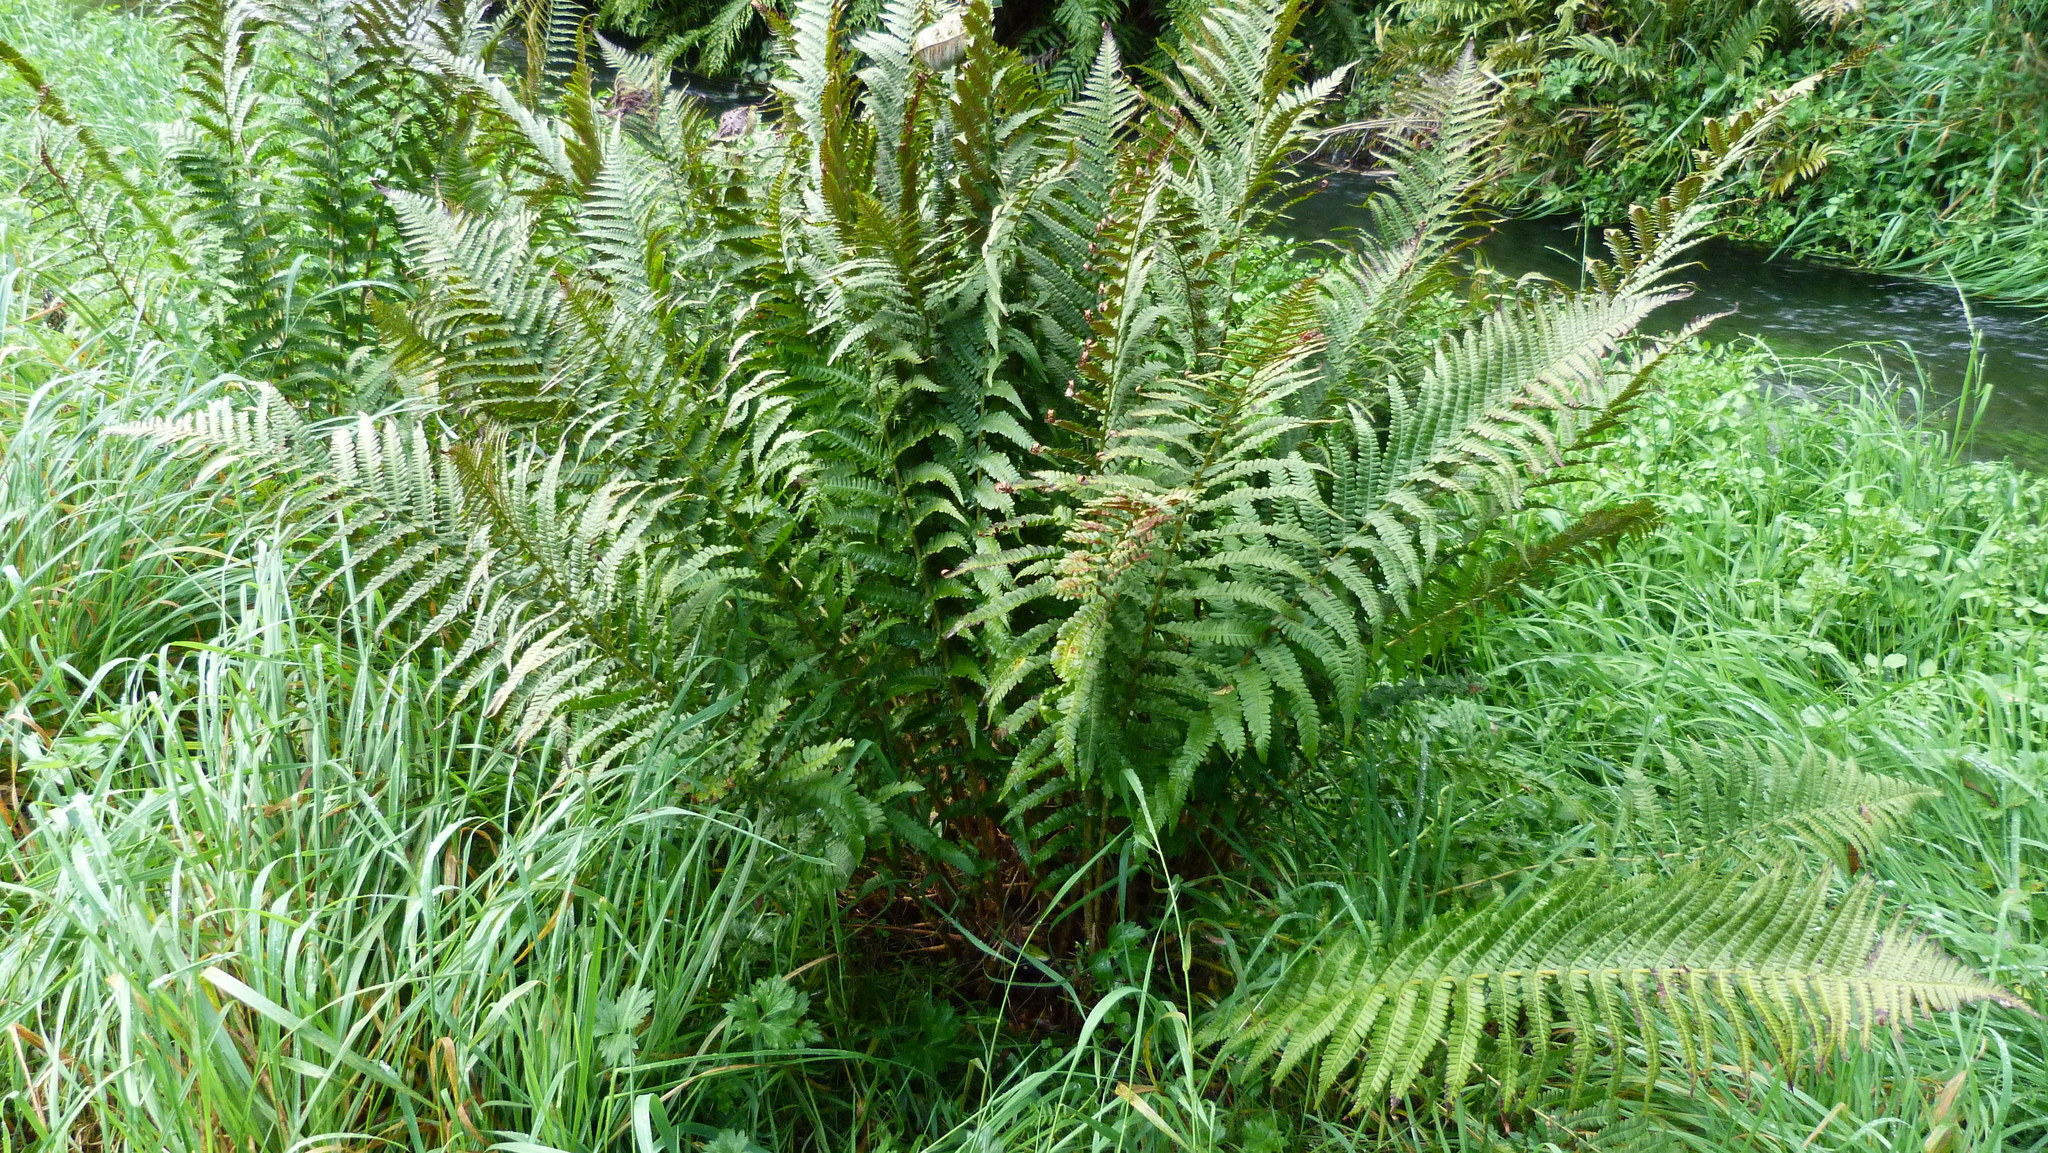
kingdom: Plantae
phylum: Tracheophyta
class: Polypodiopsida
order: Polypodiales
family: Dryopteridaceae
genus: Dryopteris
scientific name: Dryopteris filix-mas
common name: Male fern
